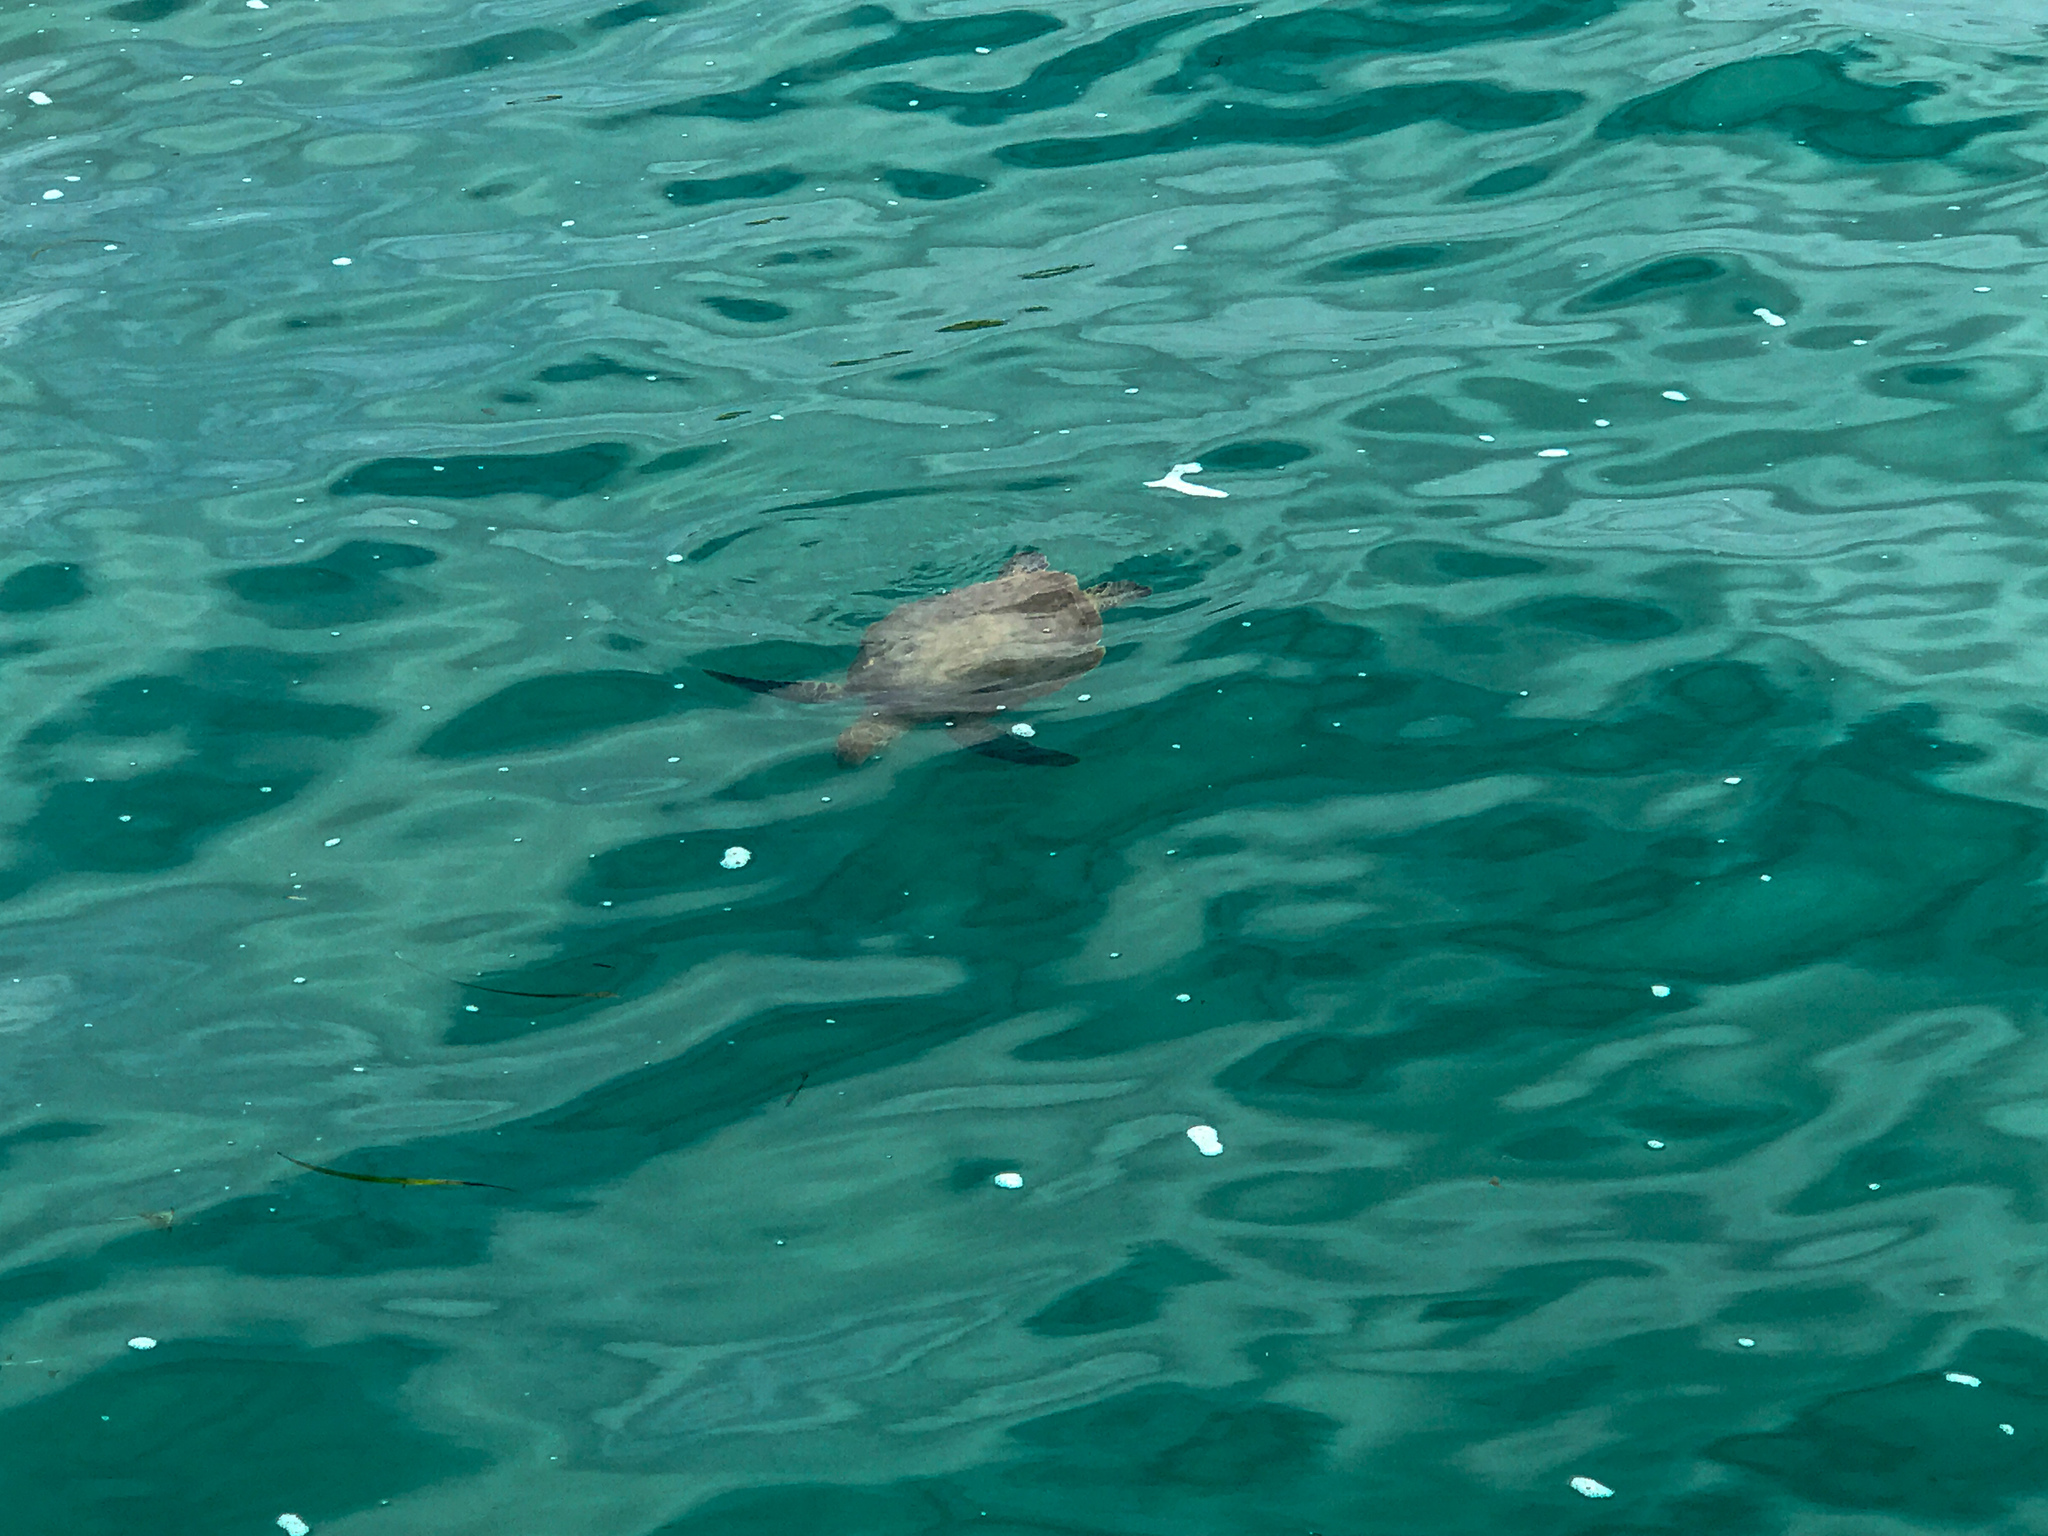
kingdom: Animalia
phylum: Chordata
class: Testudines
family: Cheloniidae
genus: Chelonia
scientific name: Chelonia mydas
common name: Green turtle
